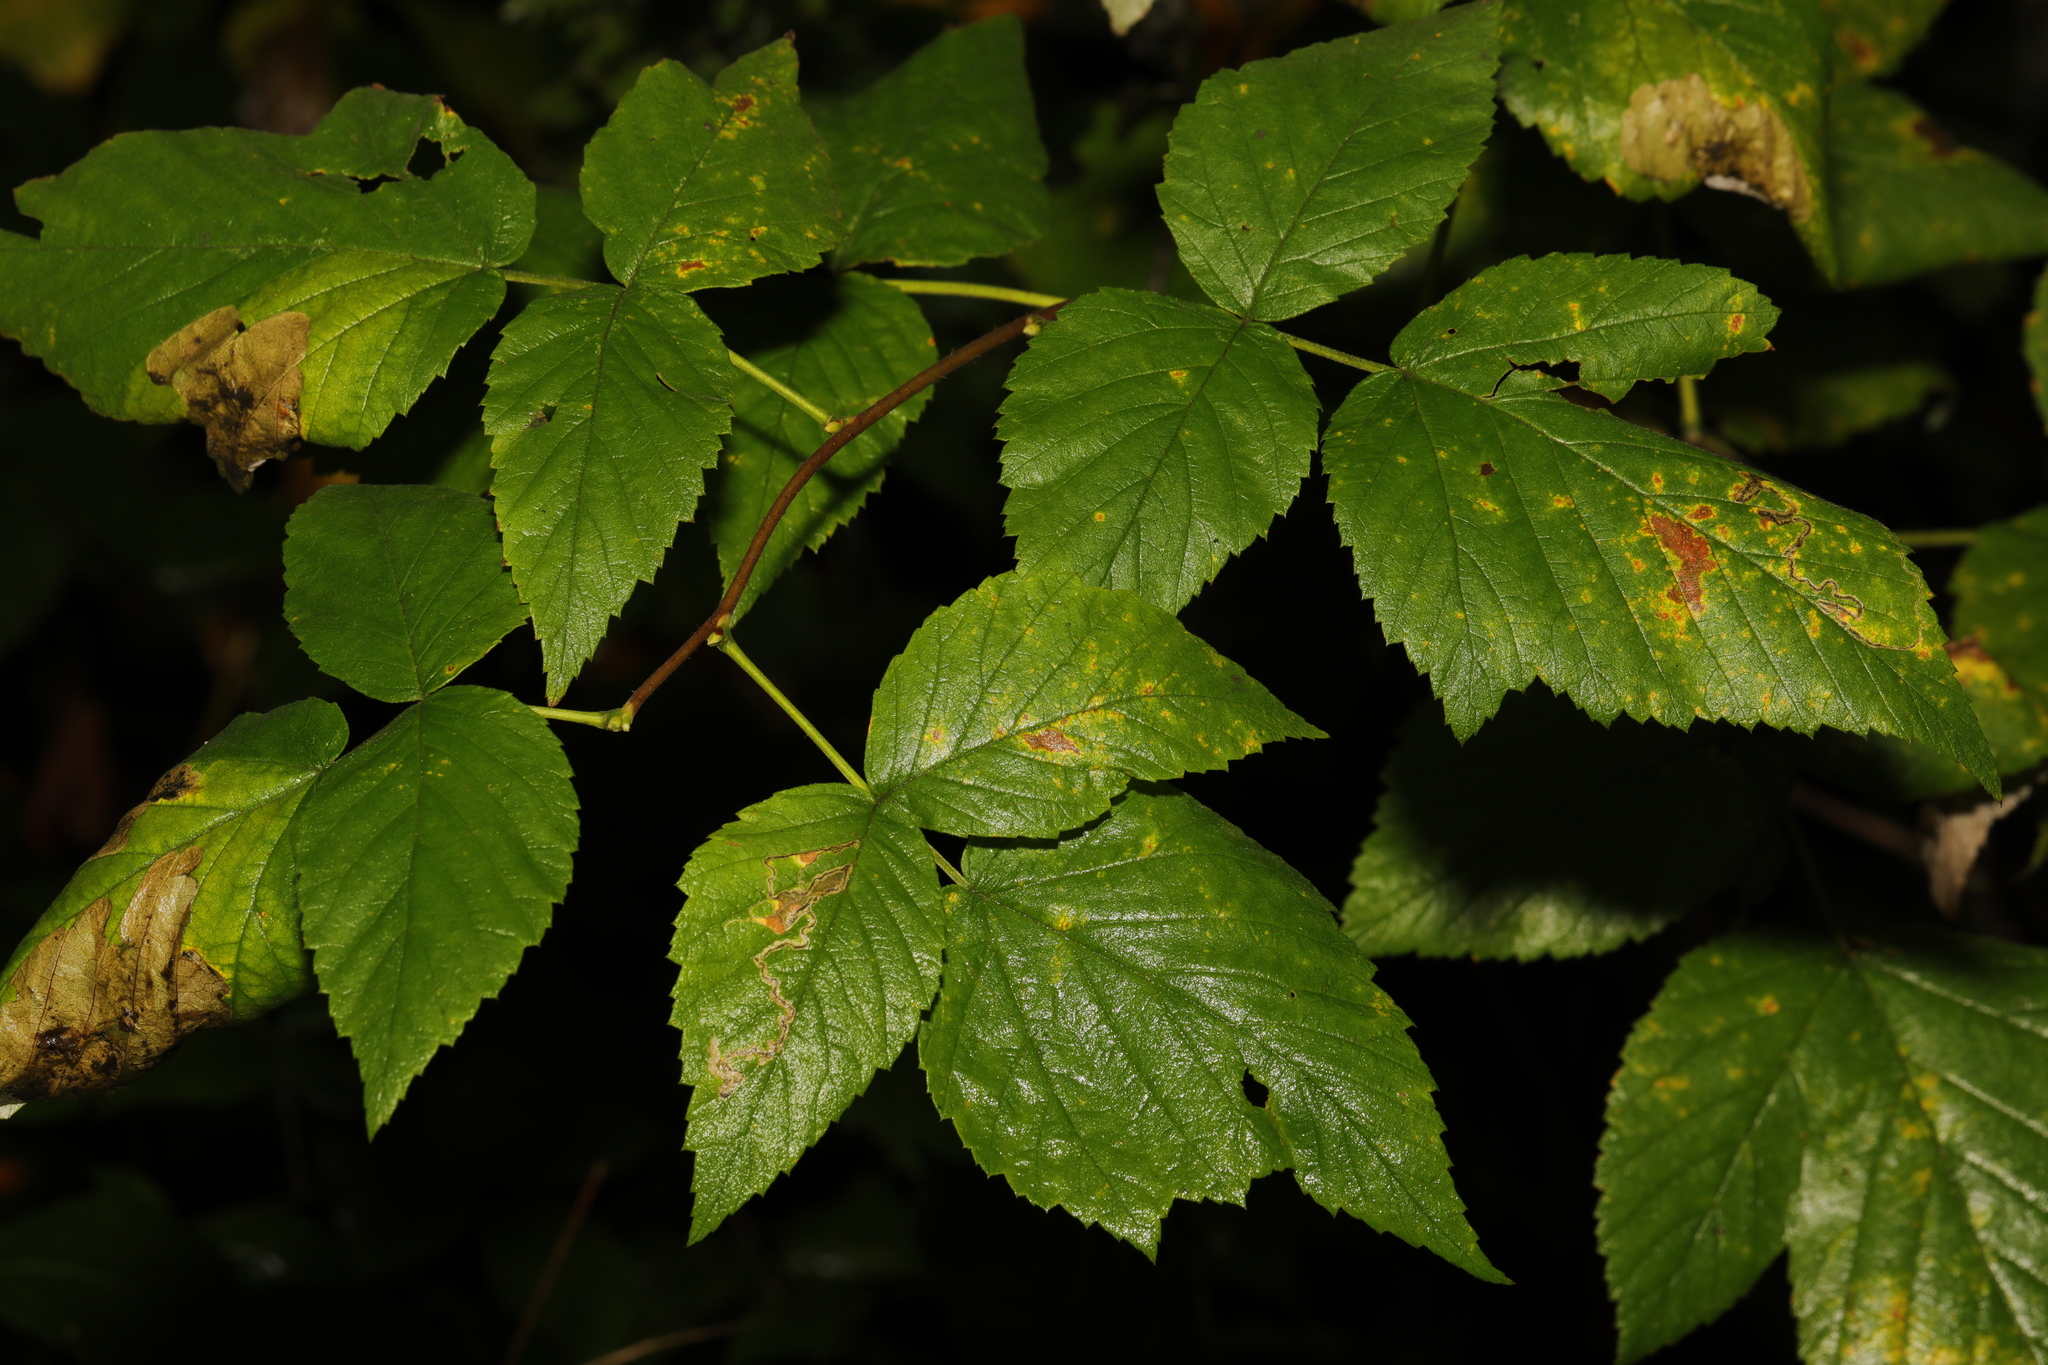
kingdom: Plantae
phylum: Tracheophyta
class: Magnoliopsida
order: Rosales
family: Rosaceae
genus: Rubus
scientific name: Rubus idaeus
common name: Raspberry
